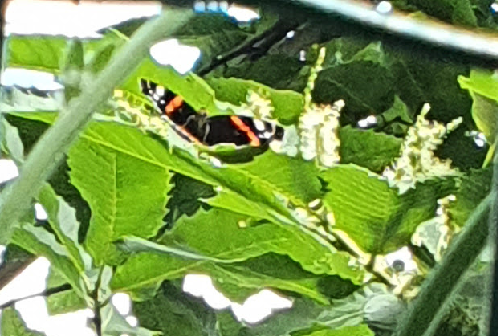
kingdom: Animalia
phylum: Arthropoda
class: Insecta
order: Lepidoptera
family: Nymphalidae
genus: Vanessa
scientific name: Vanessa atalanta
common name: Red admiral
